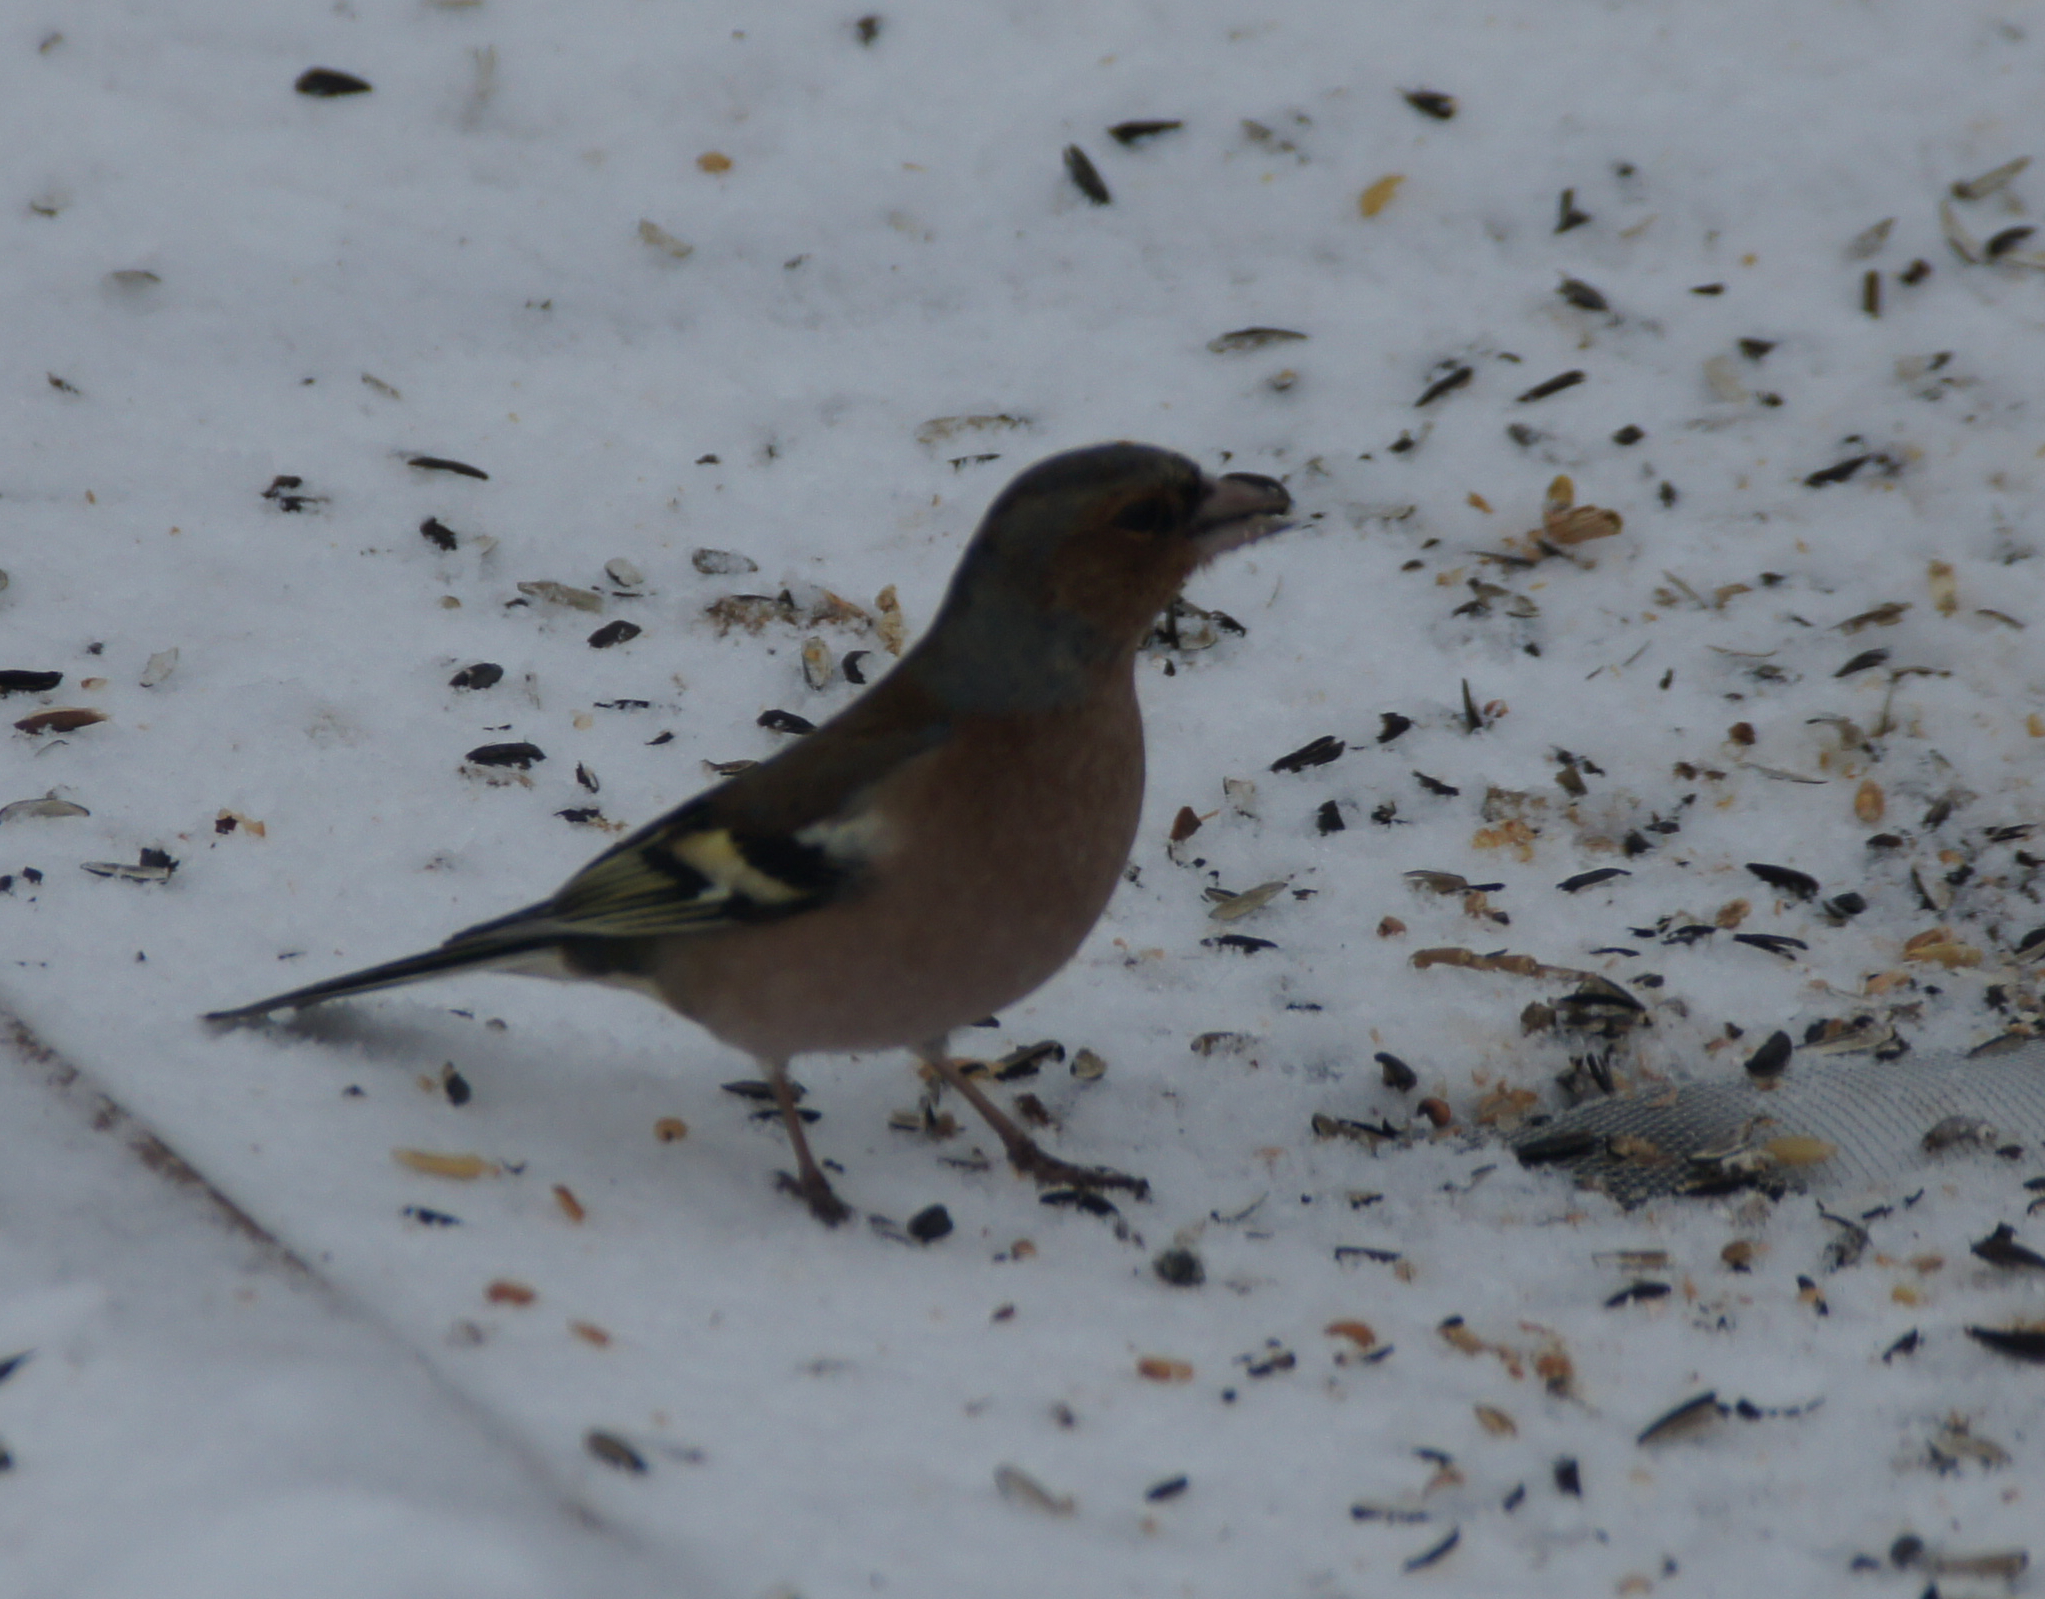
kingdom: Animalia
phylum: Chordata
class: Aves
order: Passeriformes
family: Fringillidae
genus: Fringilla
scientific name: Fringilla coelebs
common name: Common chaffinch
